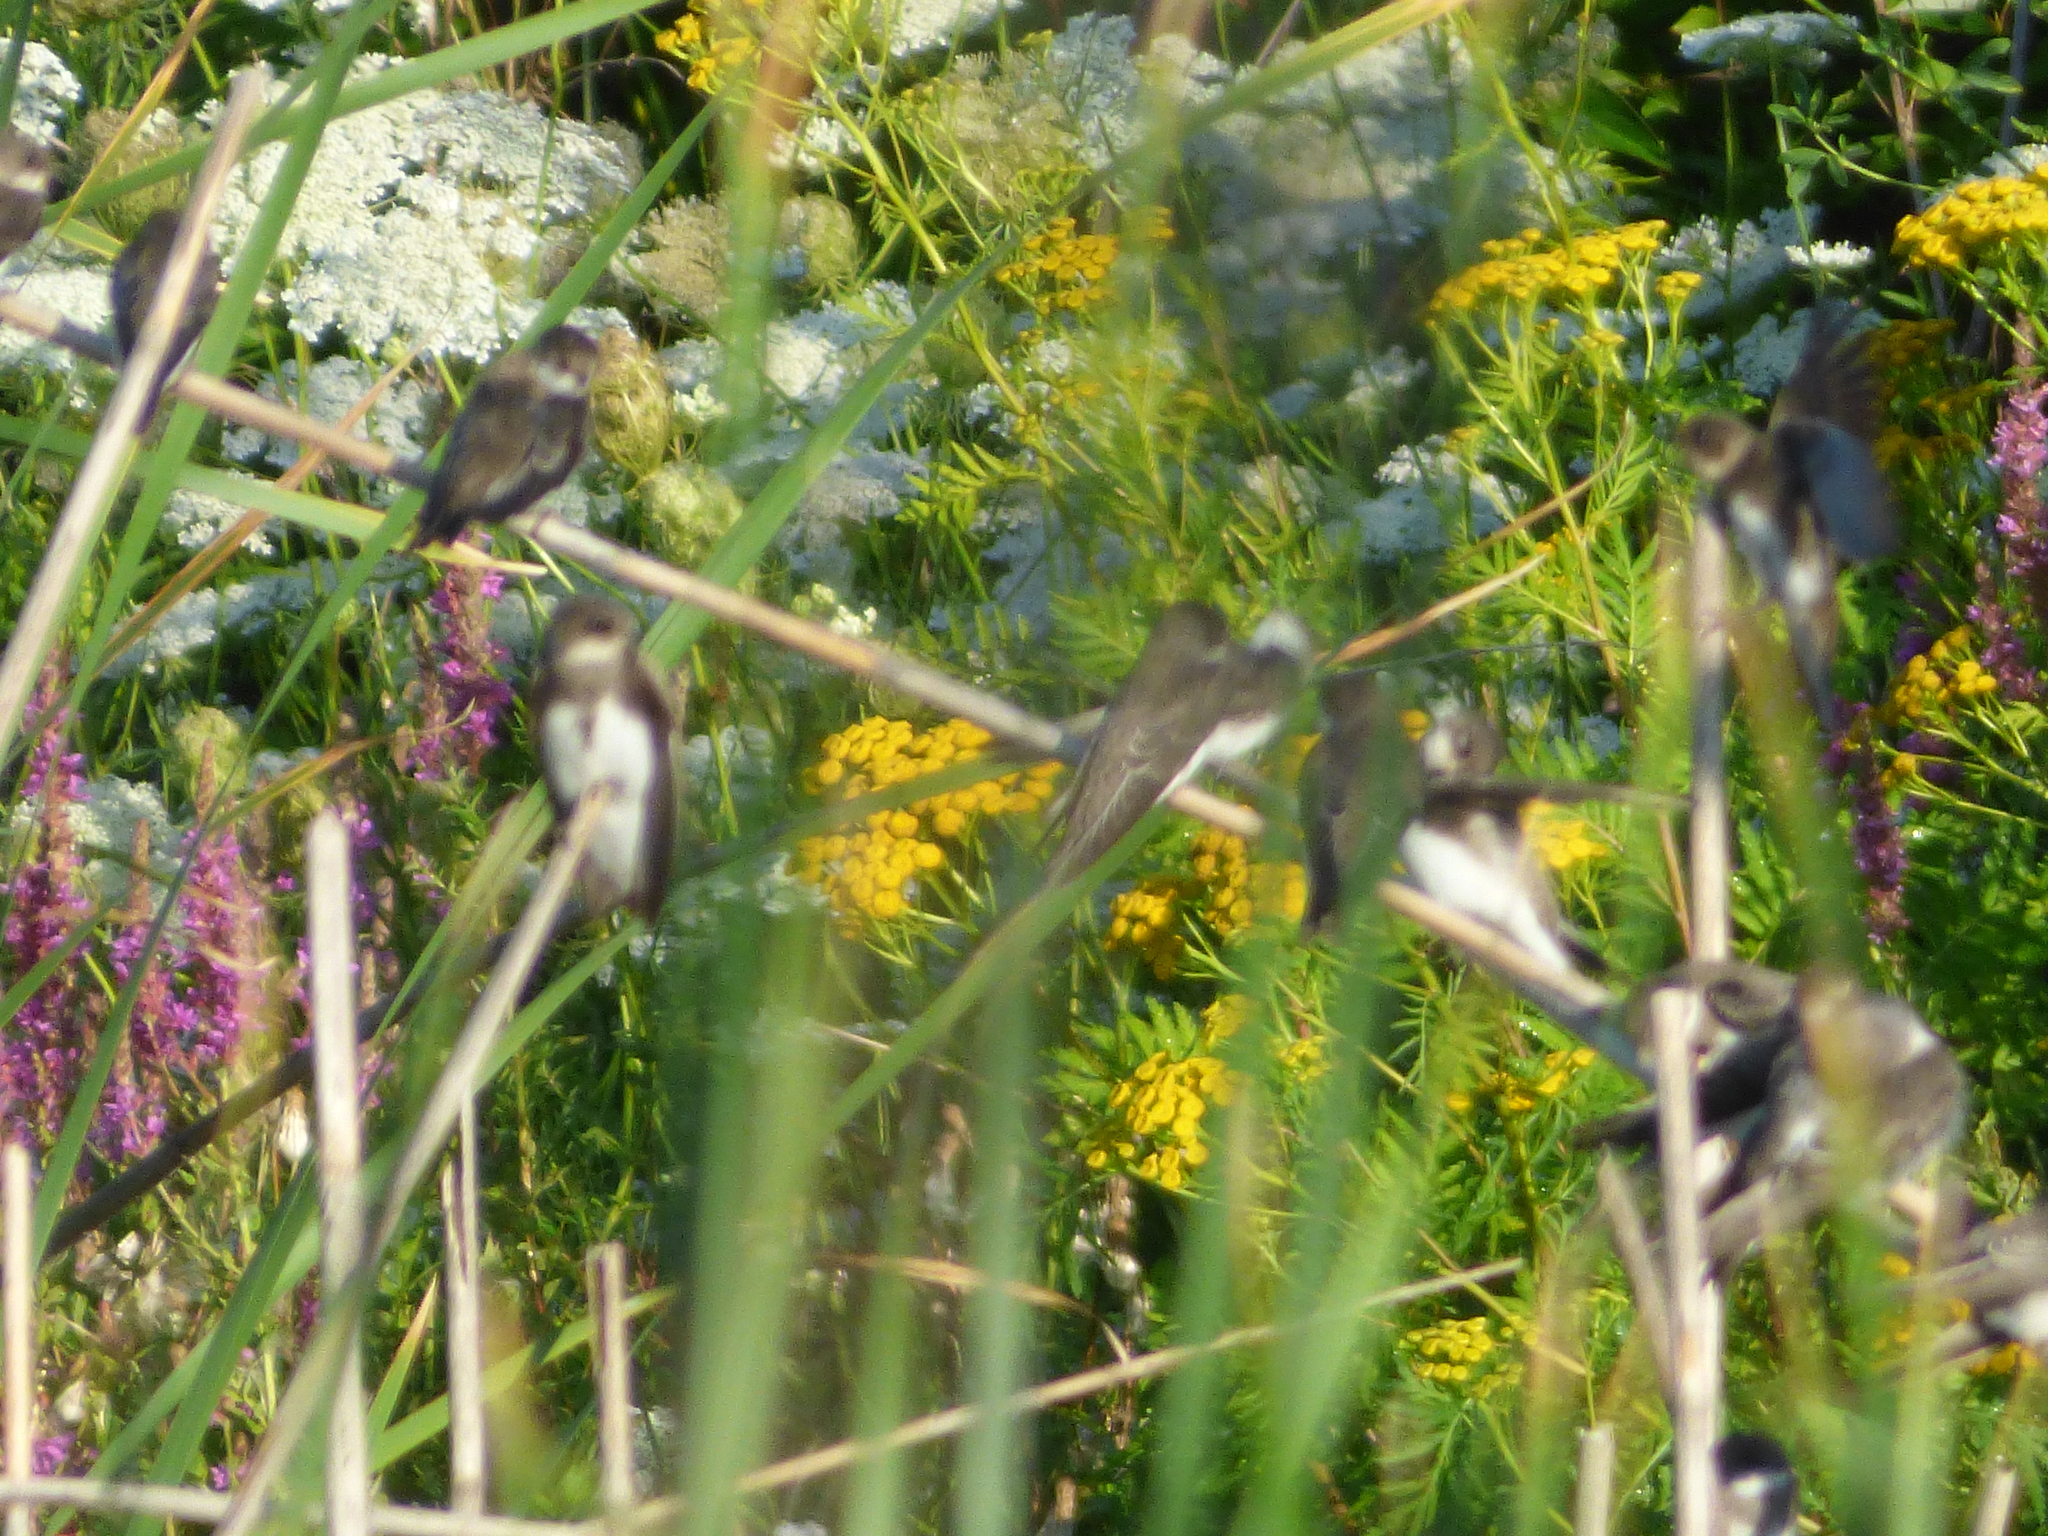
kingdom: Animalia
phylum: Chordata
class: Aves
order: Passeriformes
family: Hirundinidae
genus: Riparia
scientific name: Riparia riparia
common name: Sand martin
